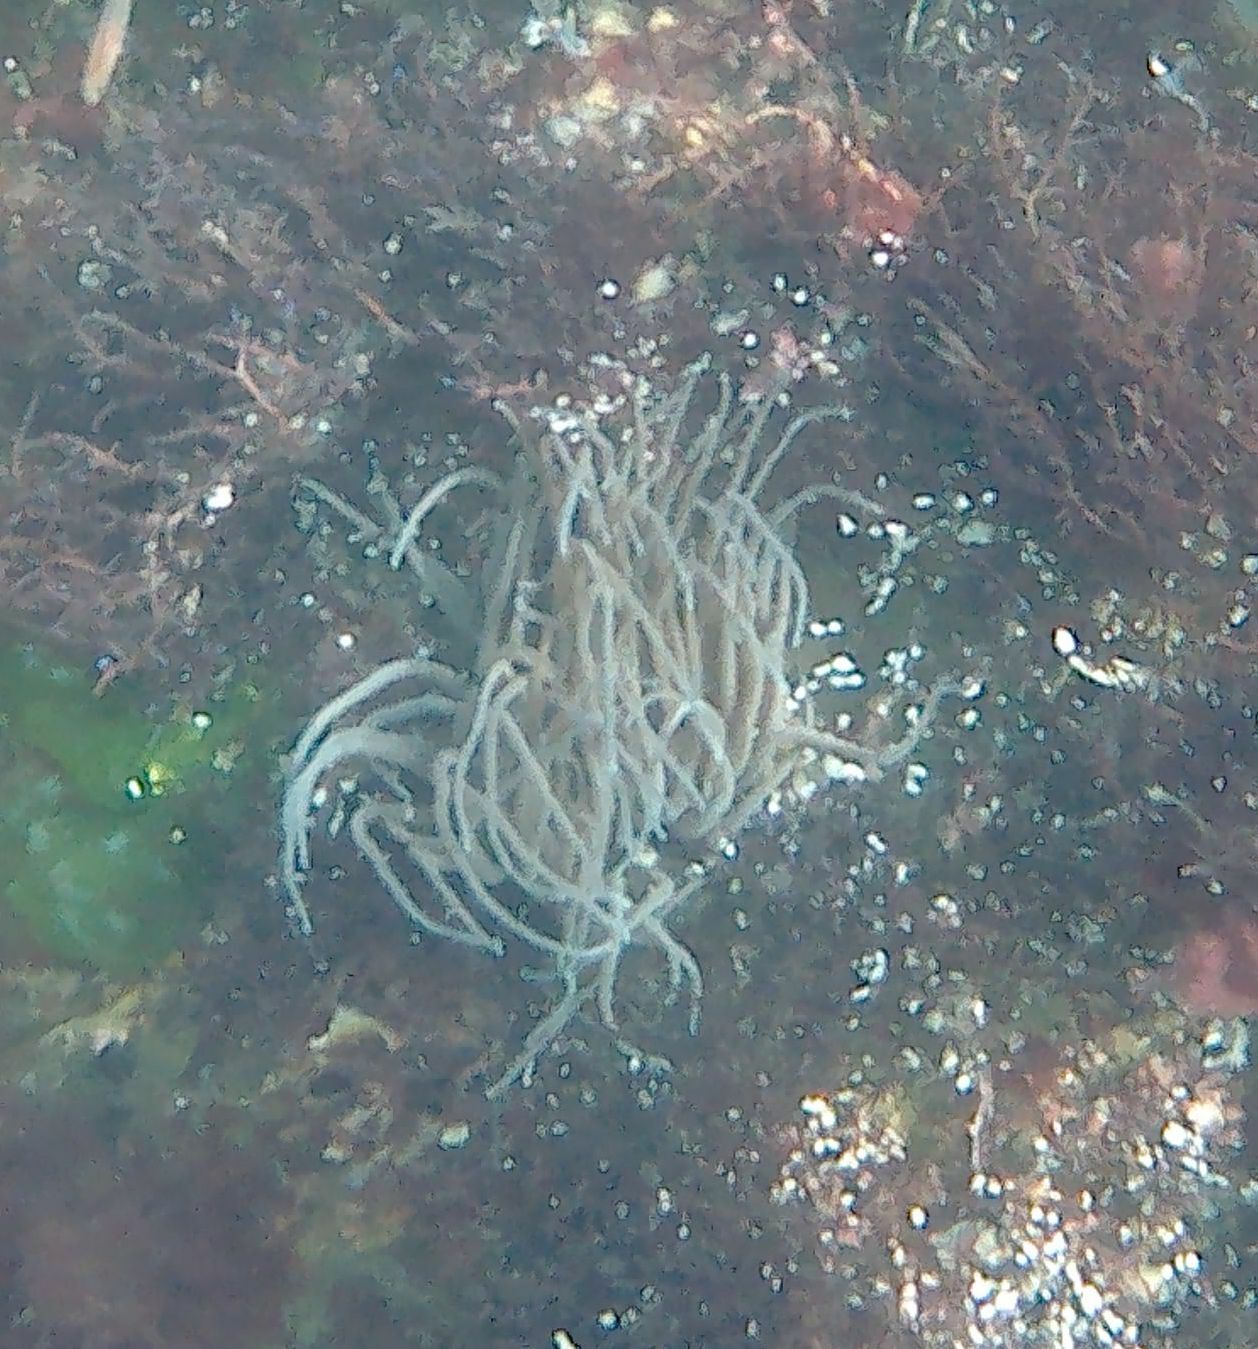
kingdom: Animalia
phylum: Cnidaria
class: Anthozoa
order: Actiniaria
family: Actiniidae
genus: Anemonia
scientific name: Anemonia viridis
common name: Snakelocks anemone
